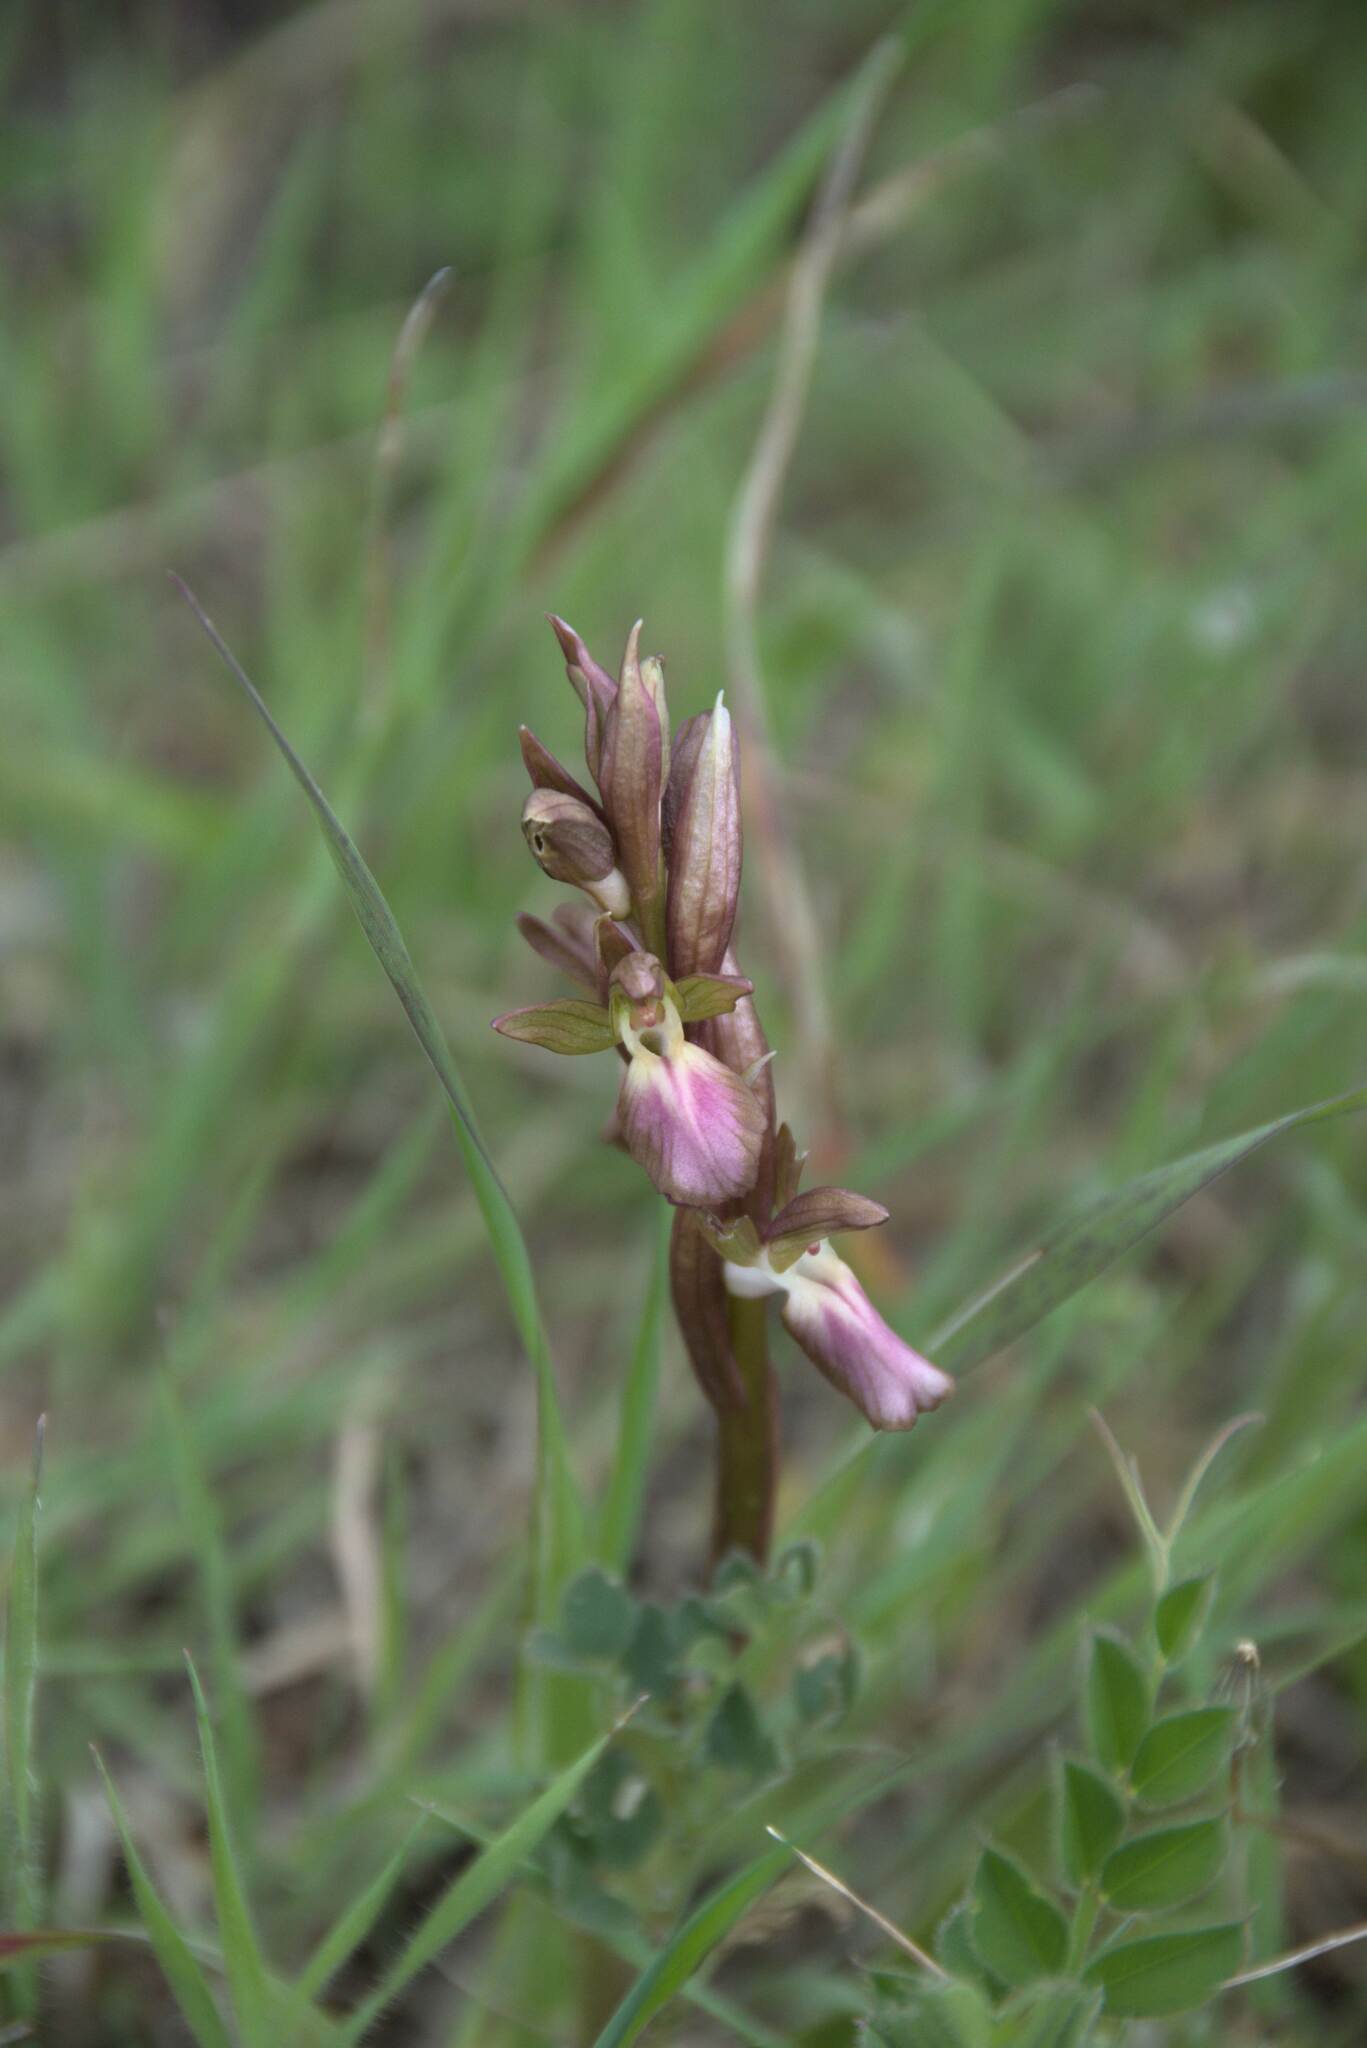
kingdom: Plantae
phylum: Tracheophyta
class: Liliopsida
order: Asparagales
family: Orchidaceae
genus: Anacamptis
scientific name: Anacamptis collina
